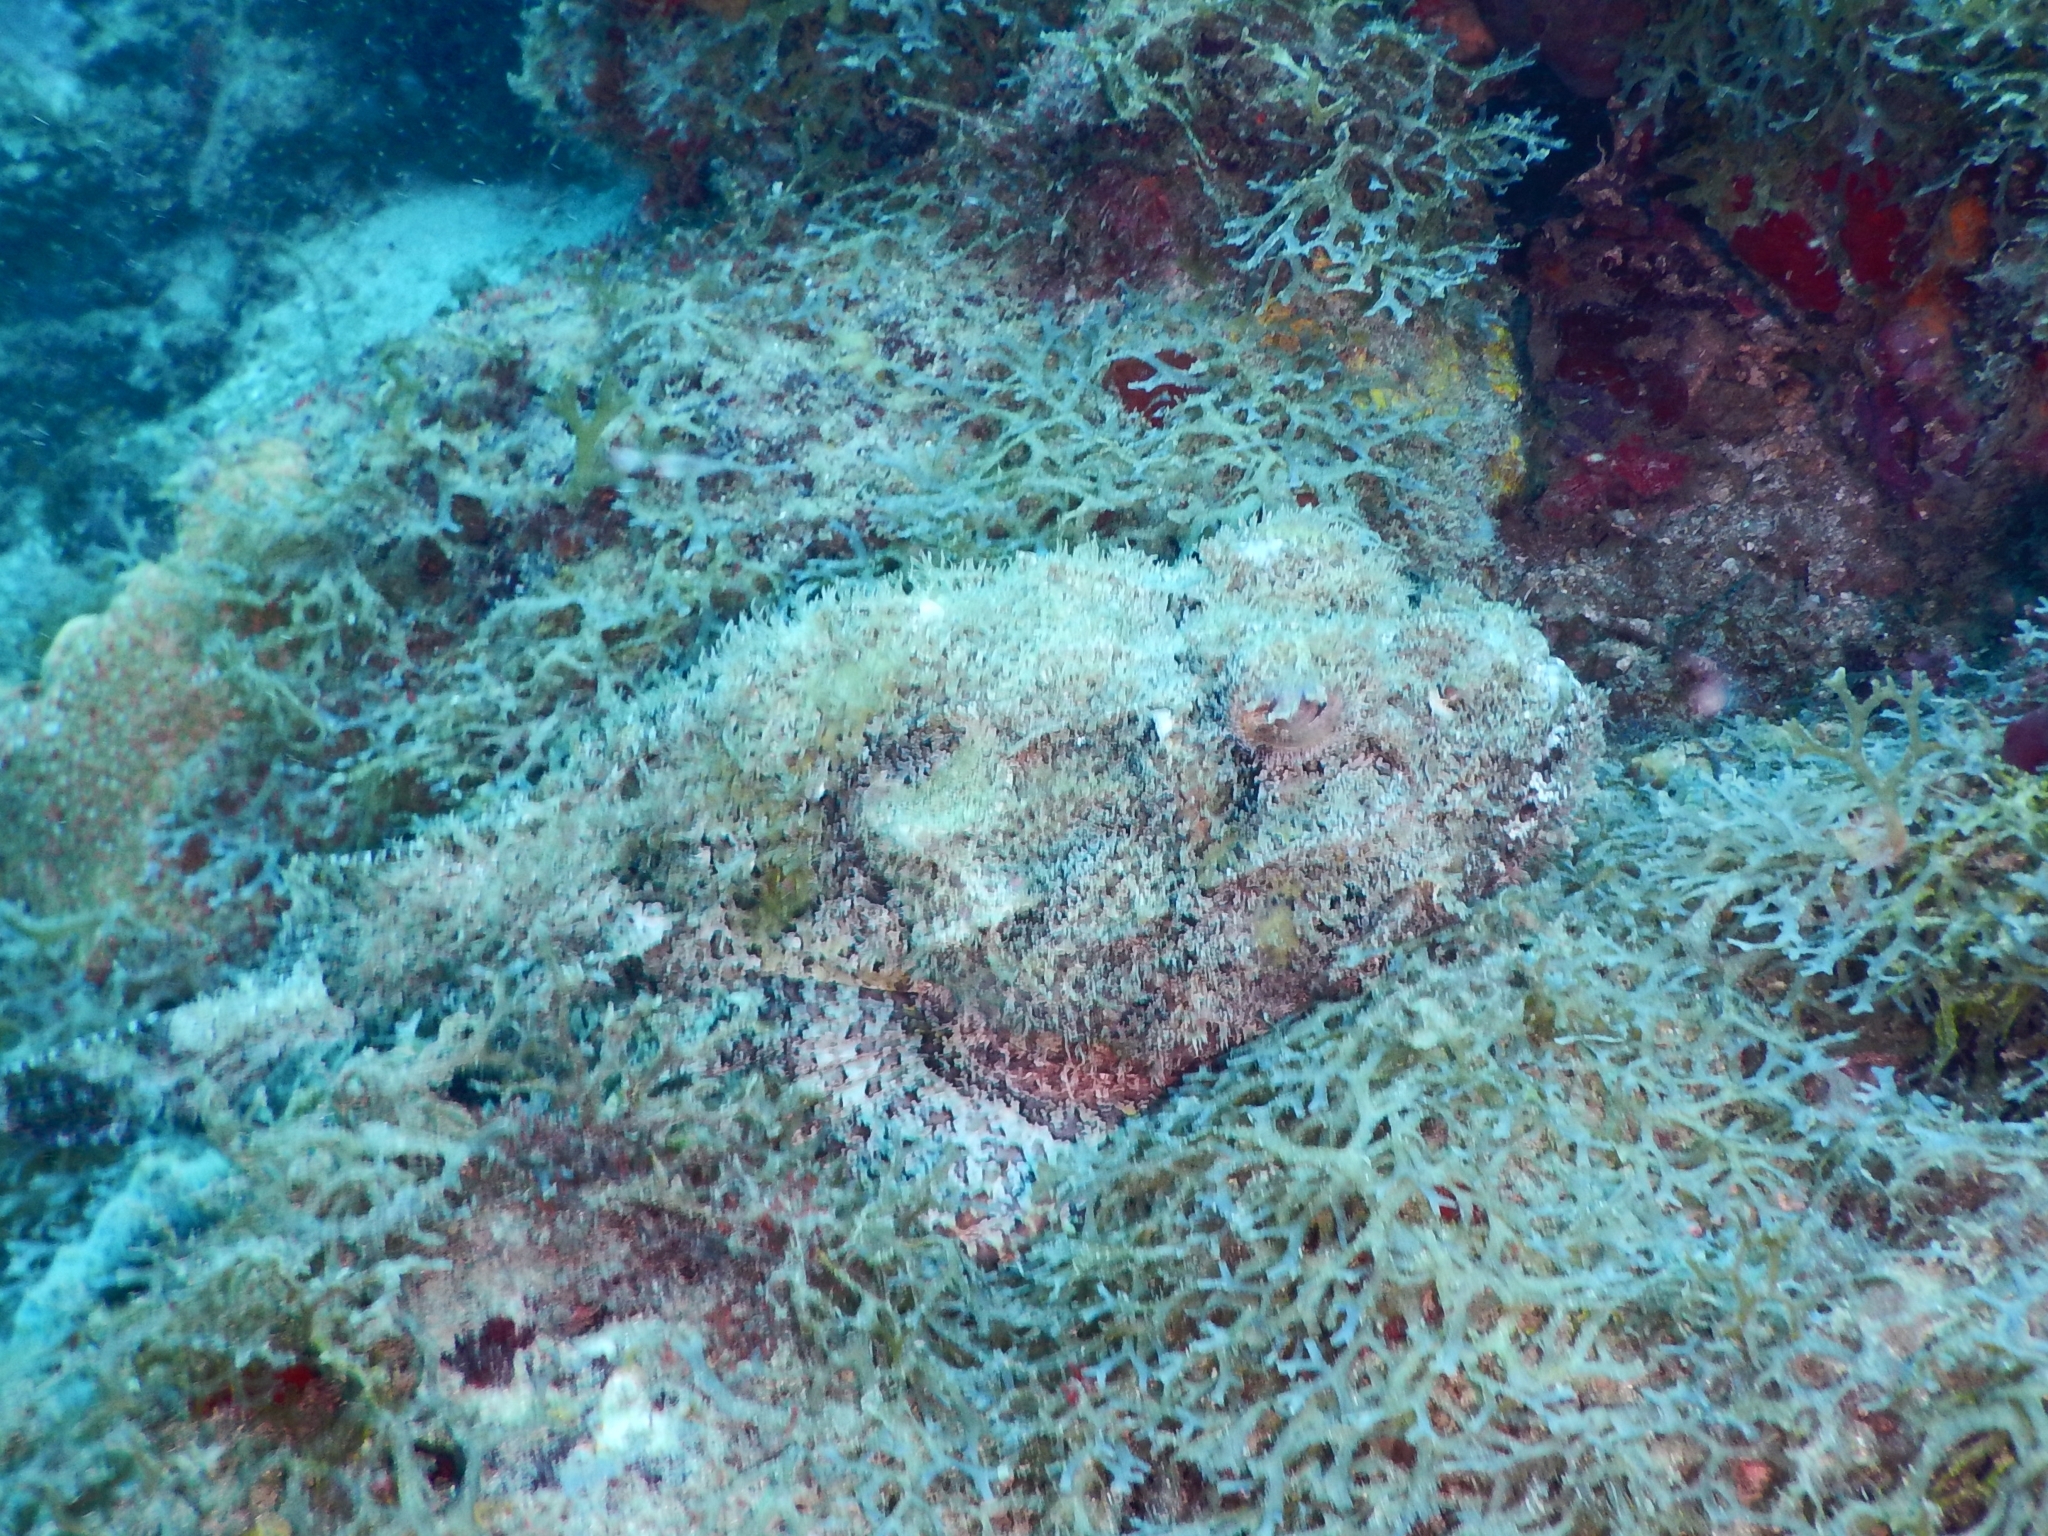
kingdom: Animalia
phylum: Chordata
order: Scorpaeniformes
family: Scorpaenidae
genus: Scorpaena
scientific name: Scorpaena plumieri
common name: Spotted scorpionfish
